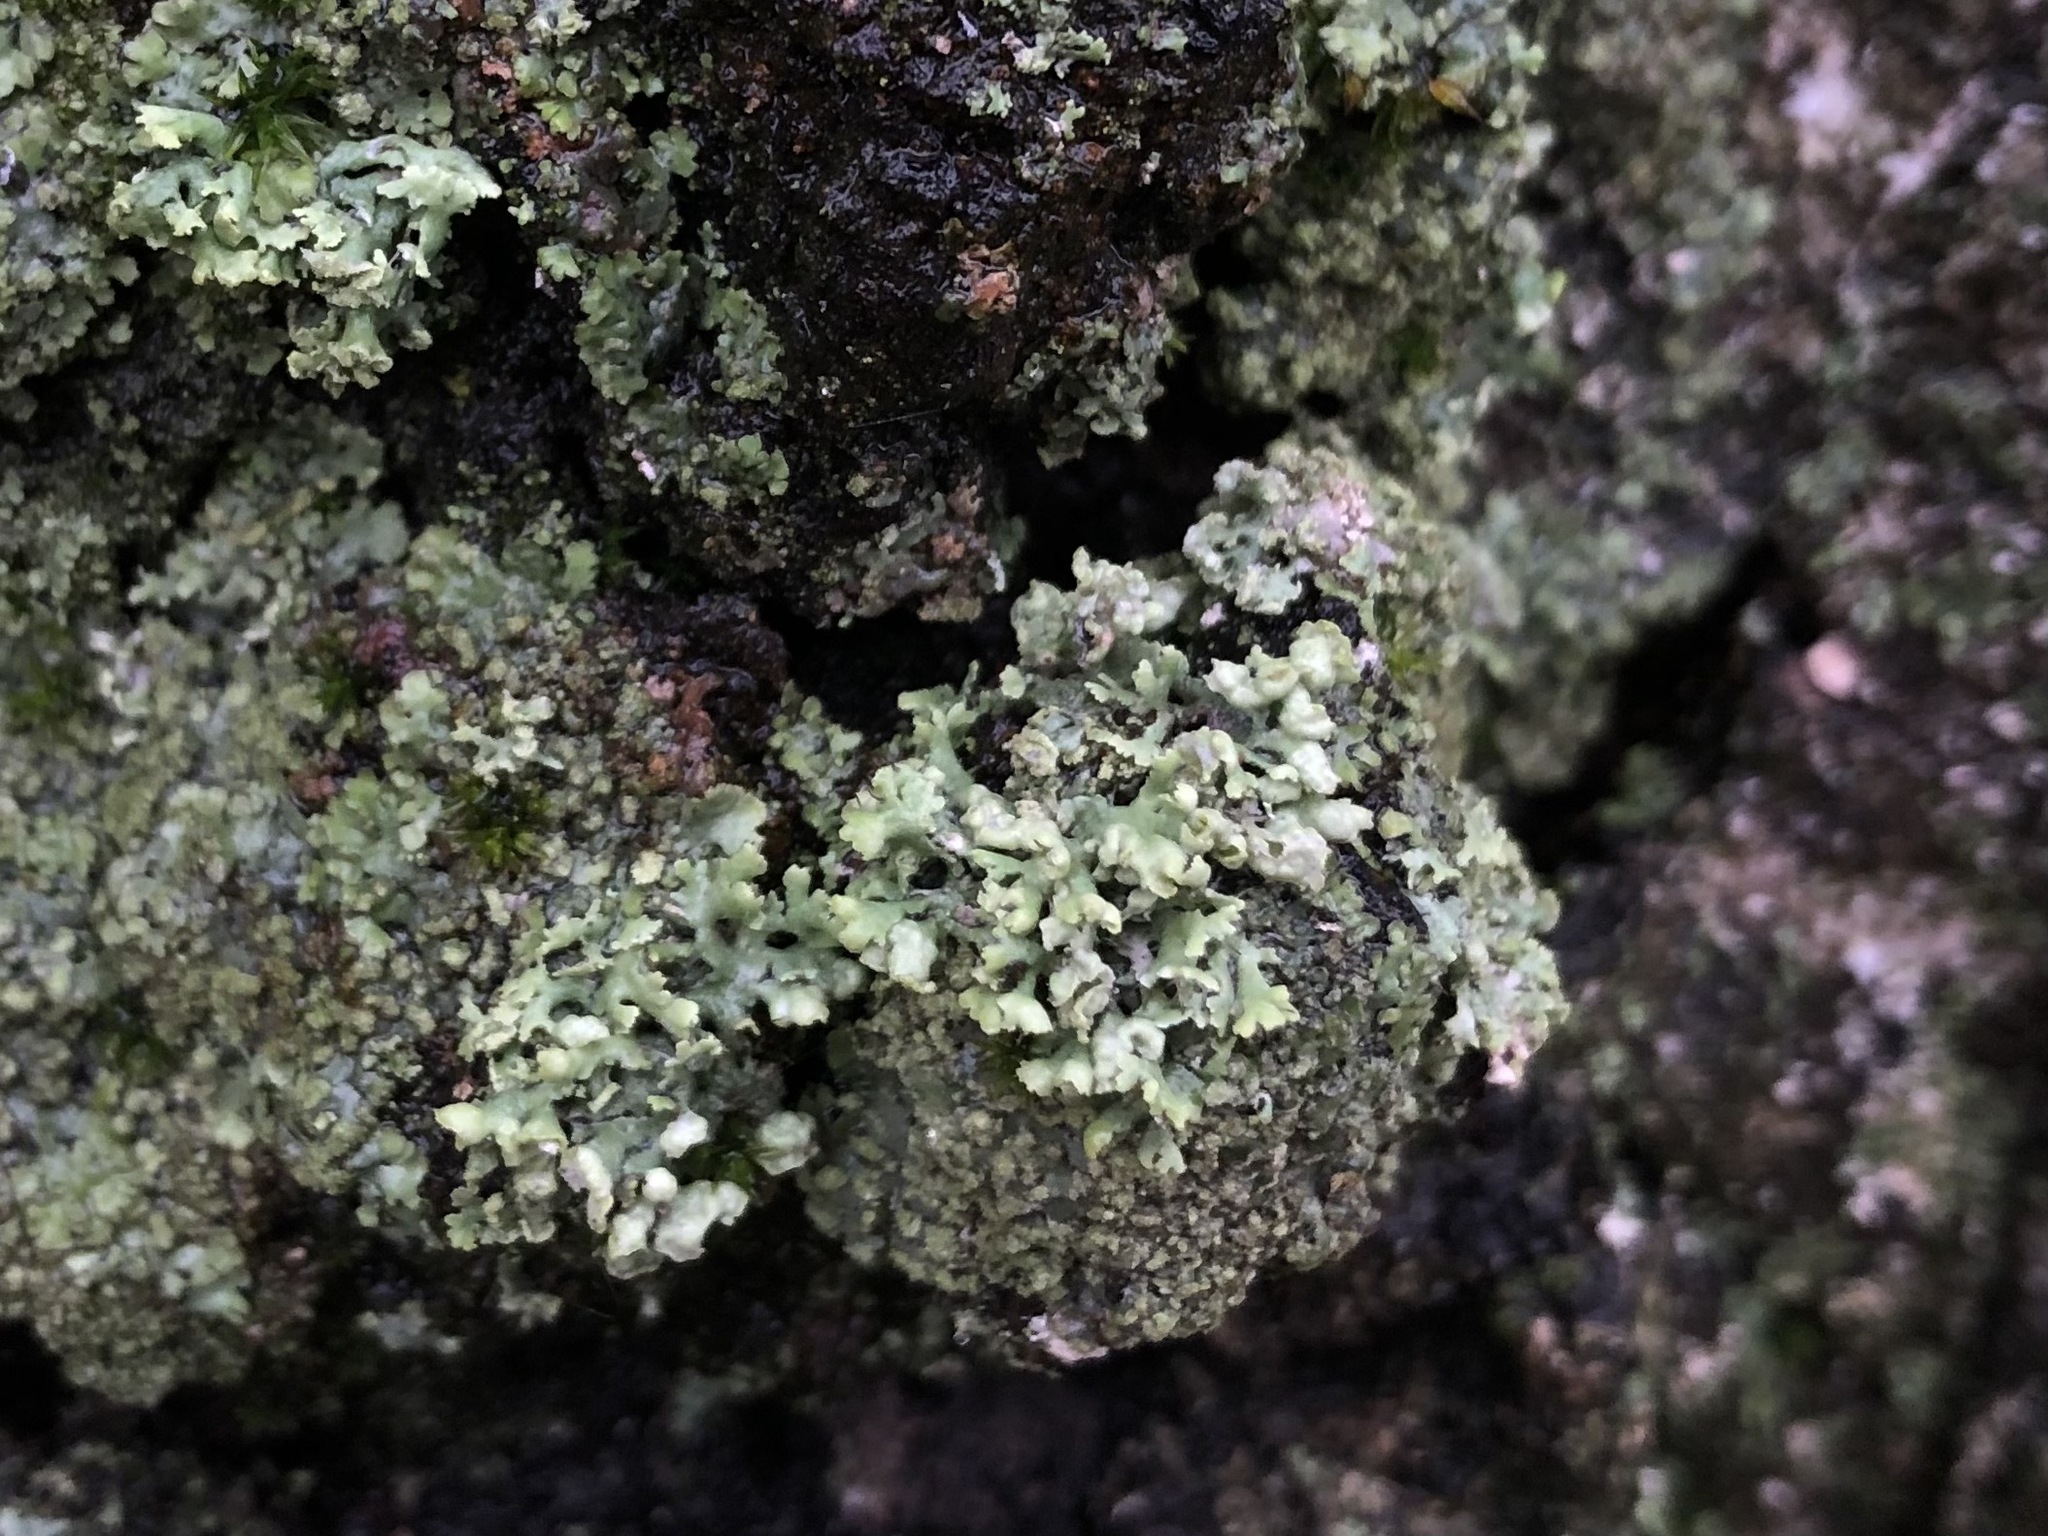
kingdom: Fungi
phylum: Ascomycota
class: Lecanoromycetes
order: Caliciales
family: Physciaceae
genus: Physcia
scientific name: Physcia adscendens
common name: Hooded rosette lichen
